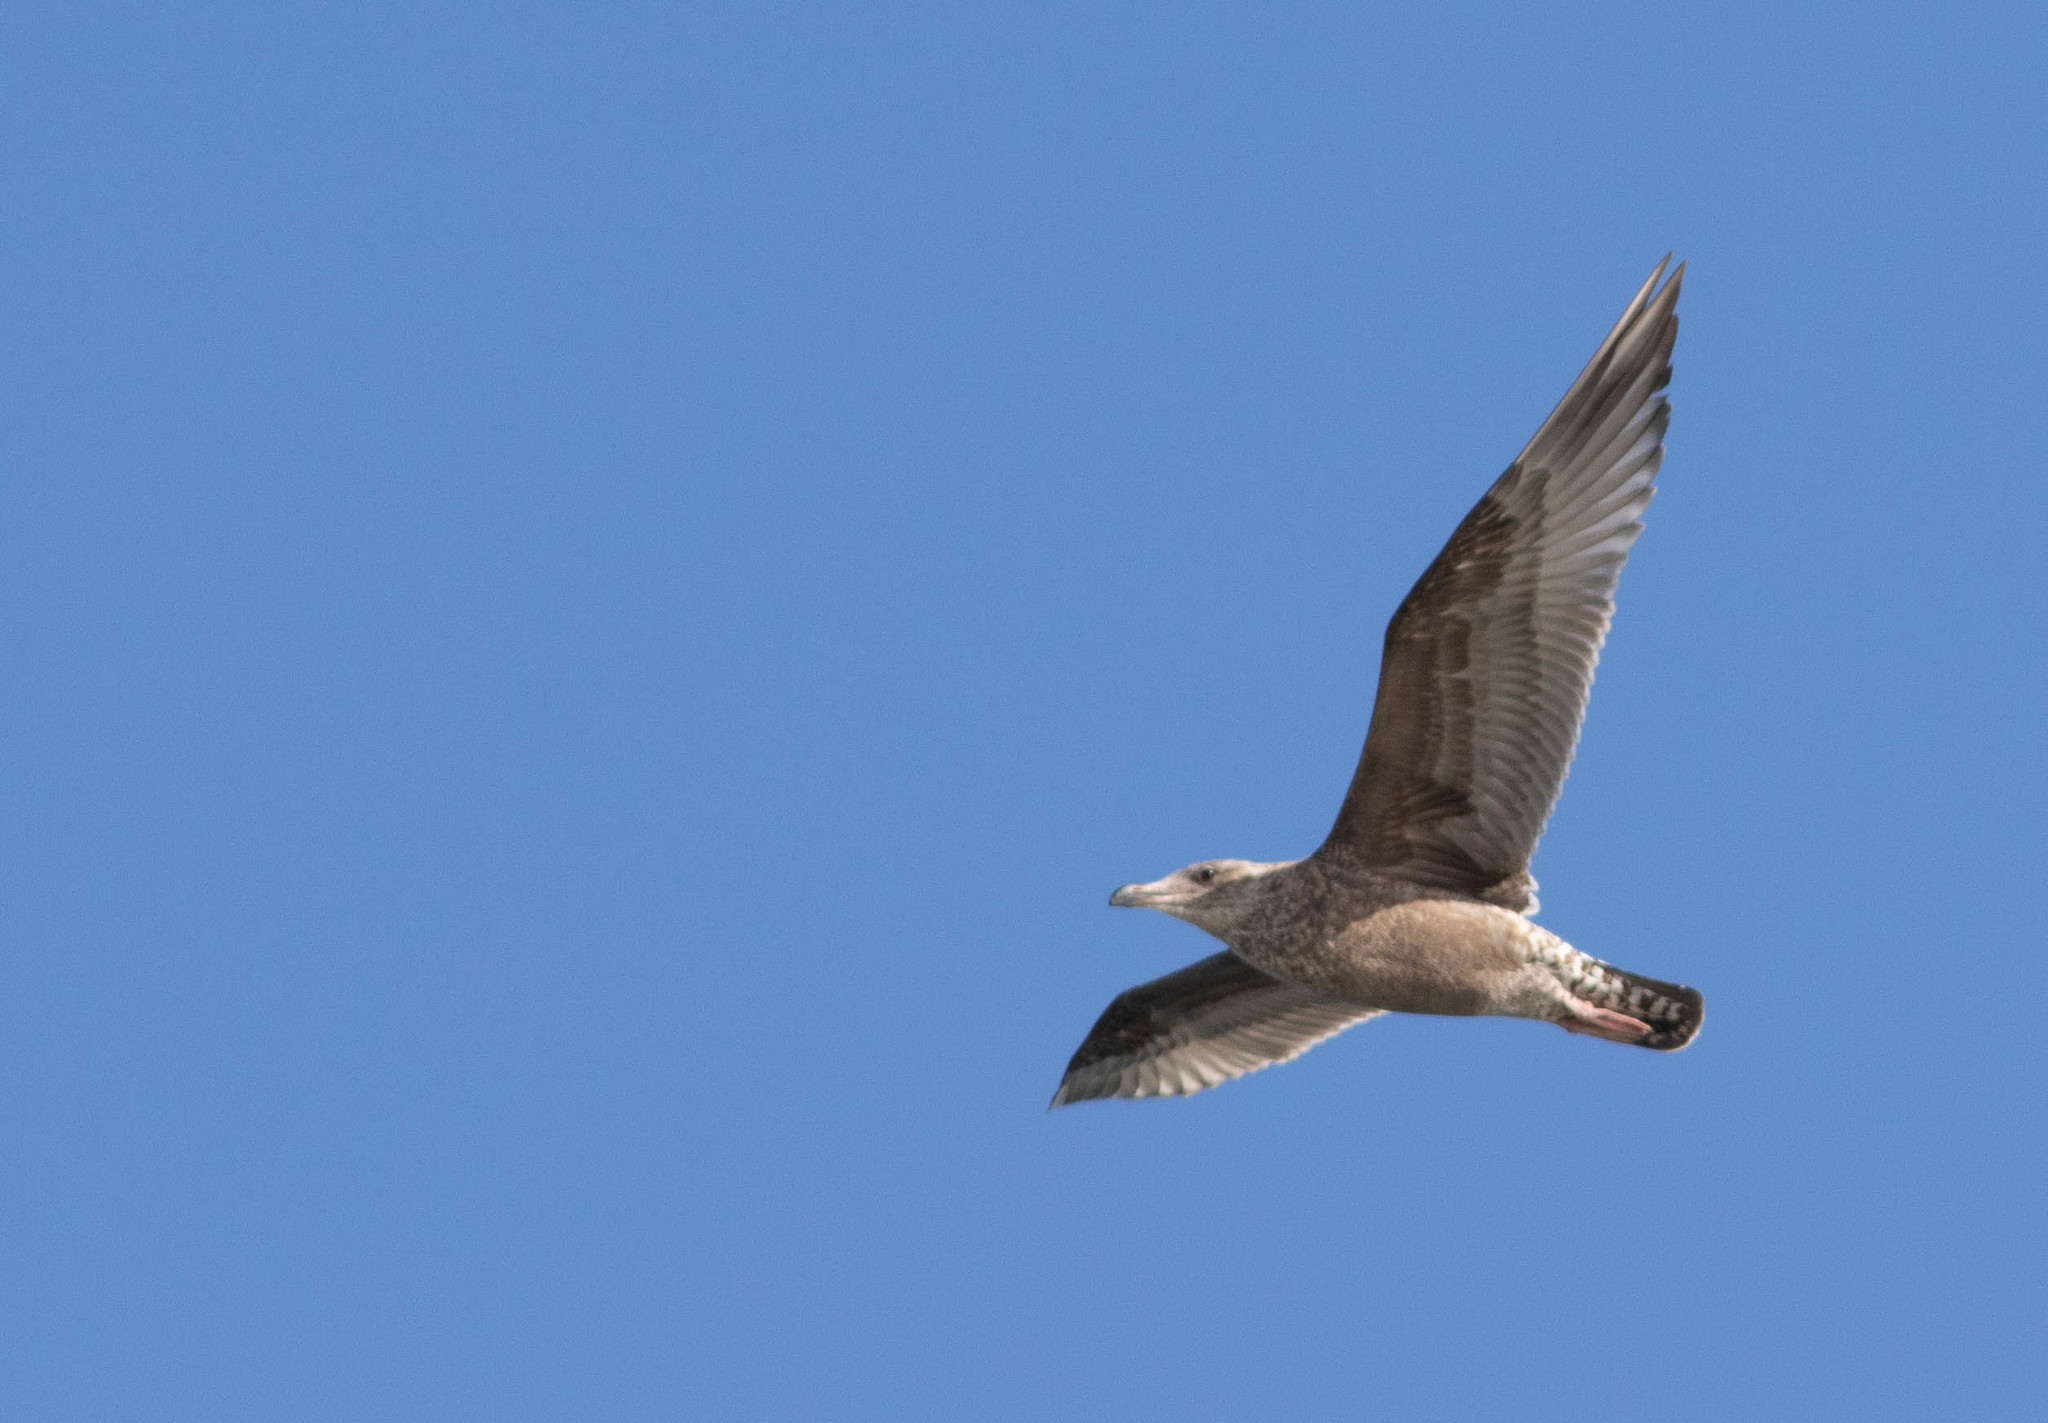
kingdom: Animalia
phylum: Chordata
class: Aves
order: Charadriiformes
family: Laridae
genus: Larus
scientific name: Larus argentatus
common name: Herring gull
